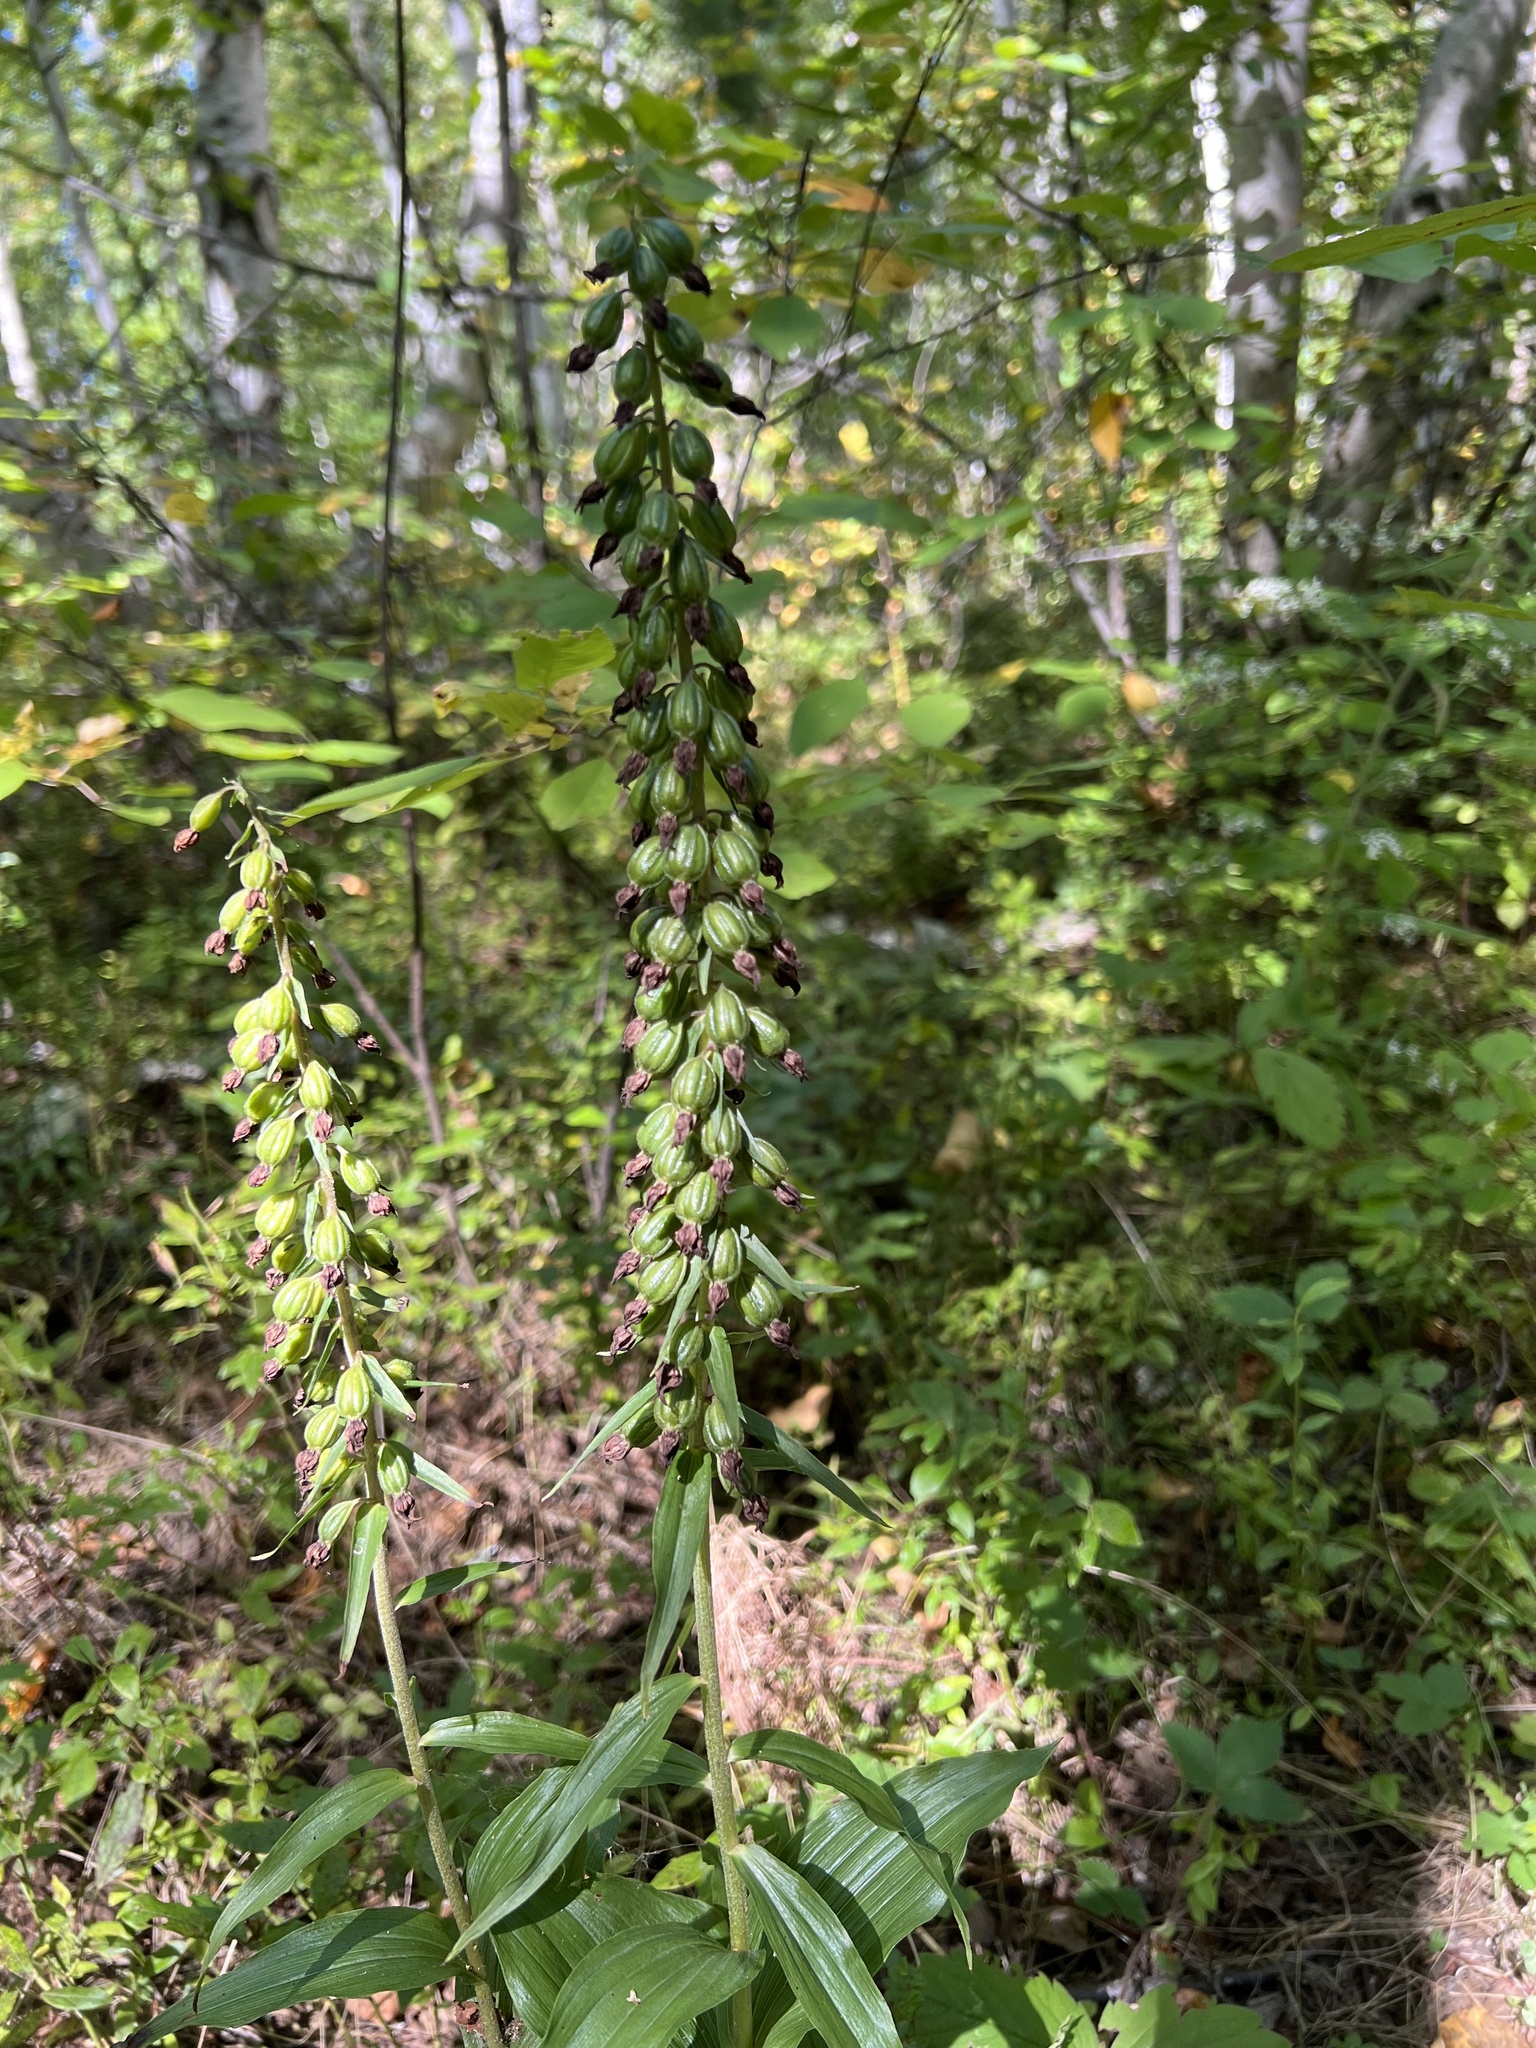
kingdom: Plantae
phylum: Tracheophyta
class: Liliopsida
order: Asparagales
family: Orchidaceae
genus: Epipactis
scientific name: Epipactis helleborine
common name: Broad-leaved helleborine
